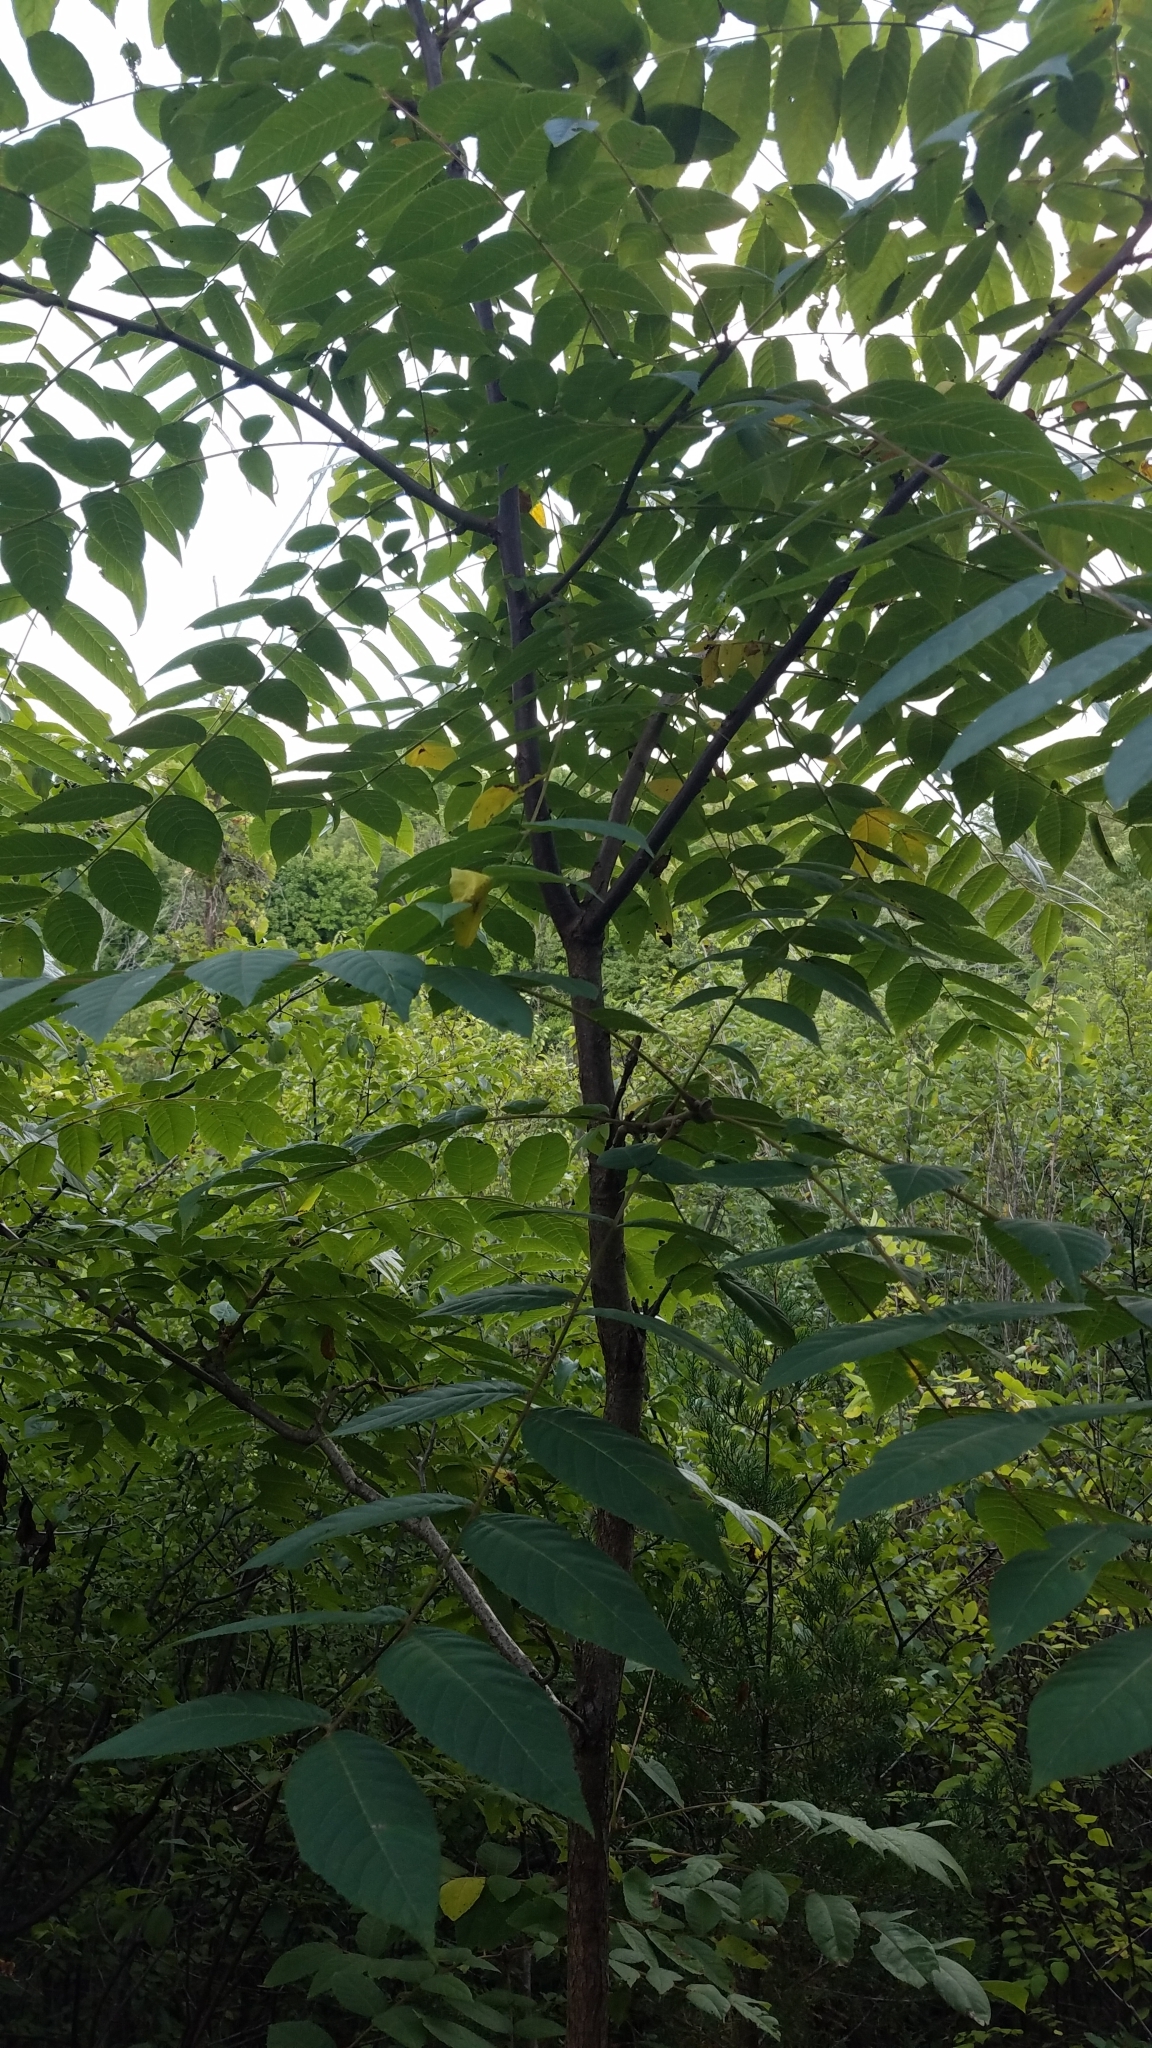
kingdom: Plantae
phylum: Tracheophyta
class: Magnoliopsida
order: Fagales
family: Juglandaceae
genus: Juglans
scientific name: Juglans nigra
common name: Black walnut
